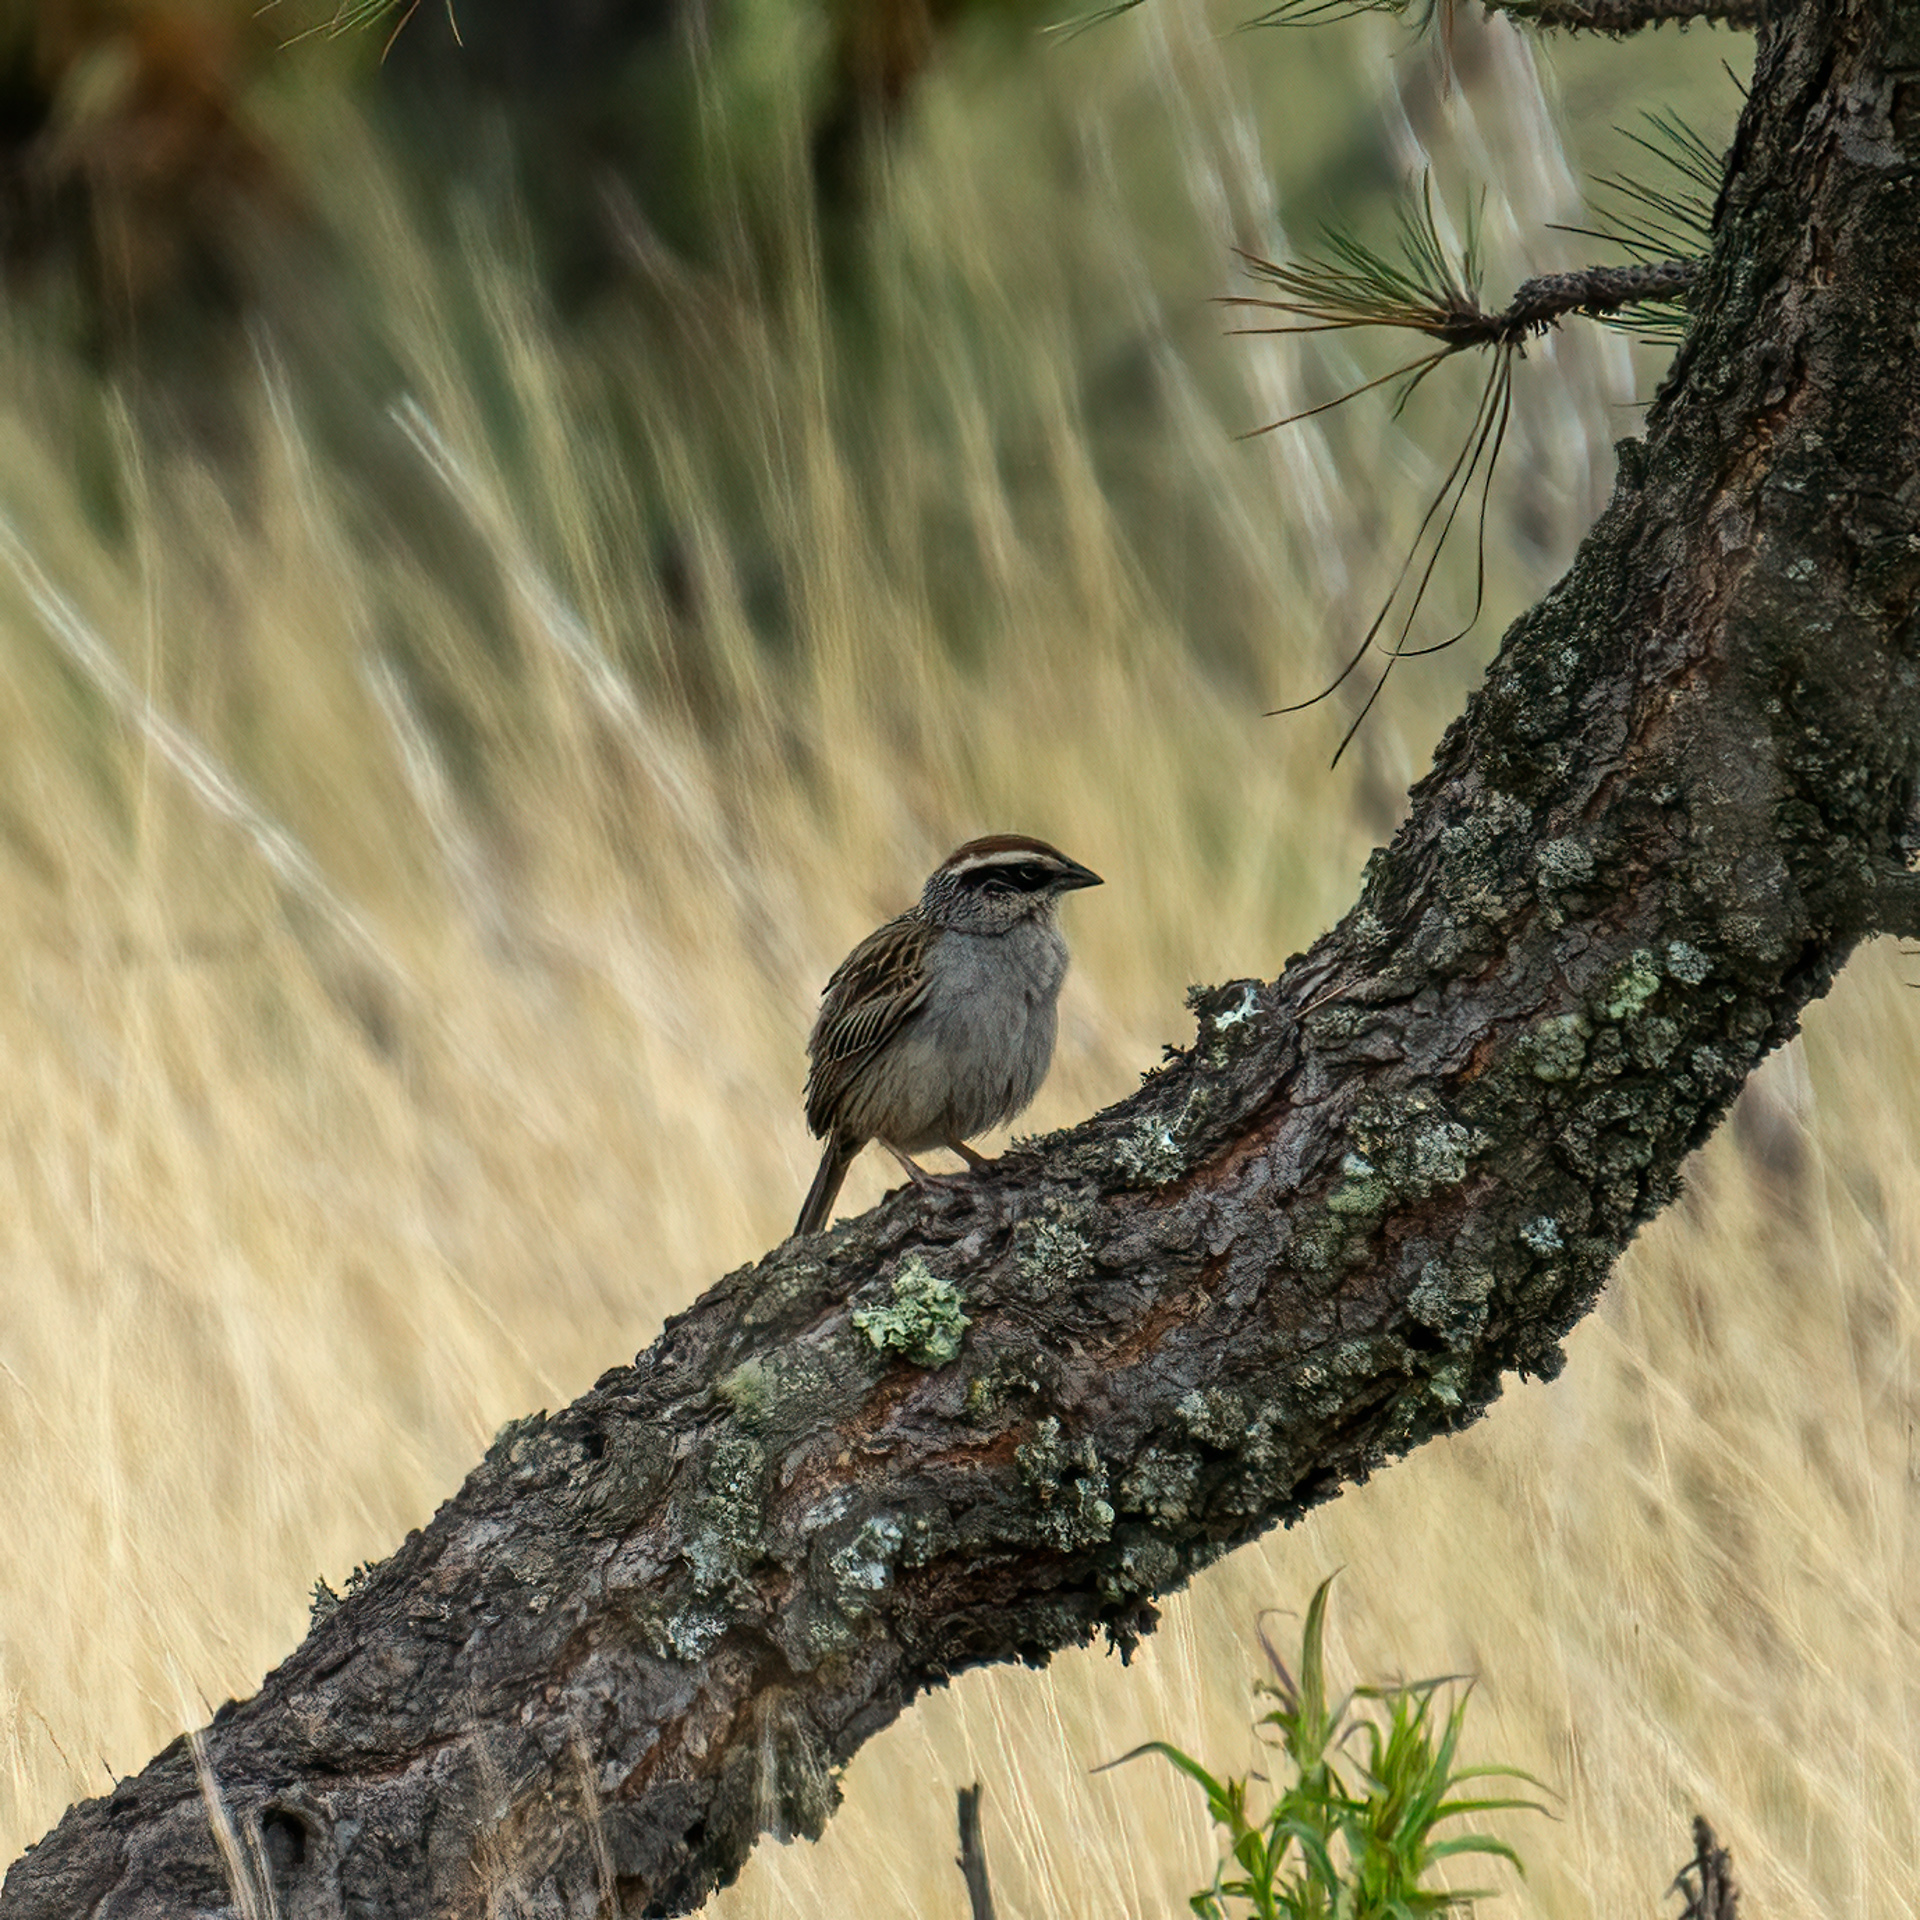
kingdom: Animalia
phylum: Chordata
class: Aves
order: Passeriformes
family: Passerellidae
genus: Oriturus
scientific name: Oriturus superciliosus
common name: Striped sparrow
